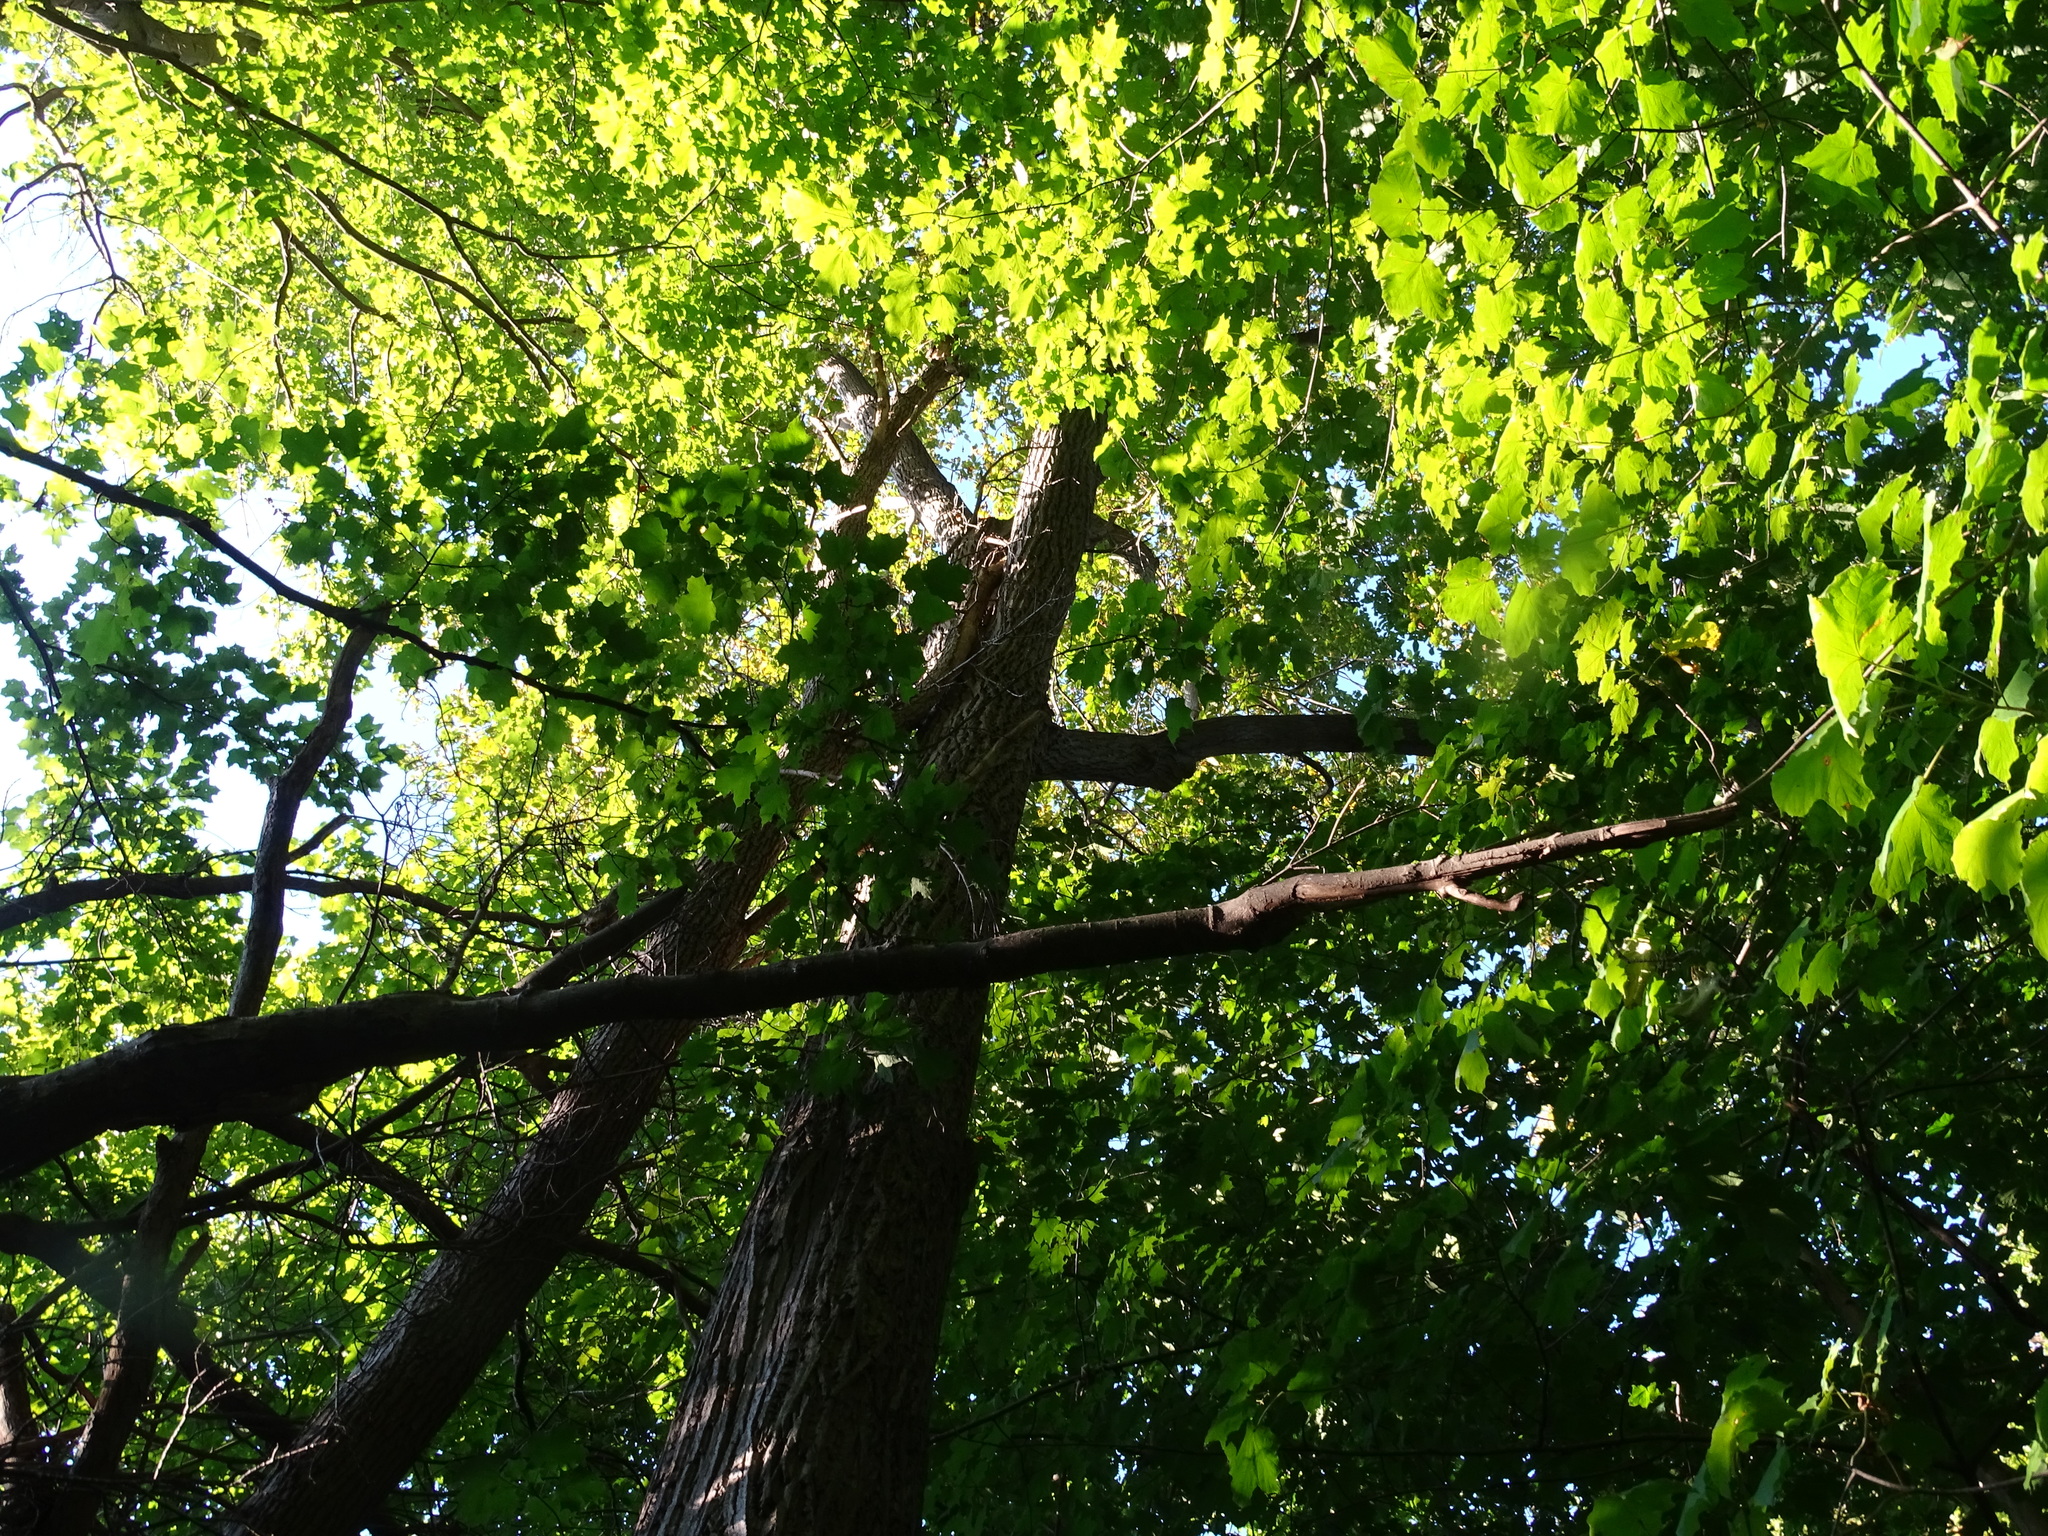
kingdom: Plantae
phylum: Tracheophyta
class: Magnoliopsida
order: Fagales
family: Juglandaceae
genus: Juglans
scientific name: Juglans cinerea
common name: Butternut
